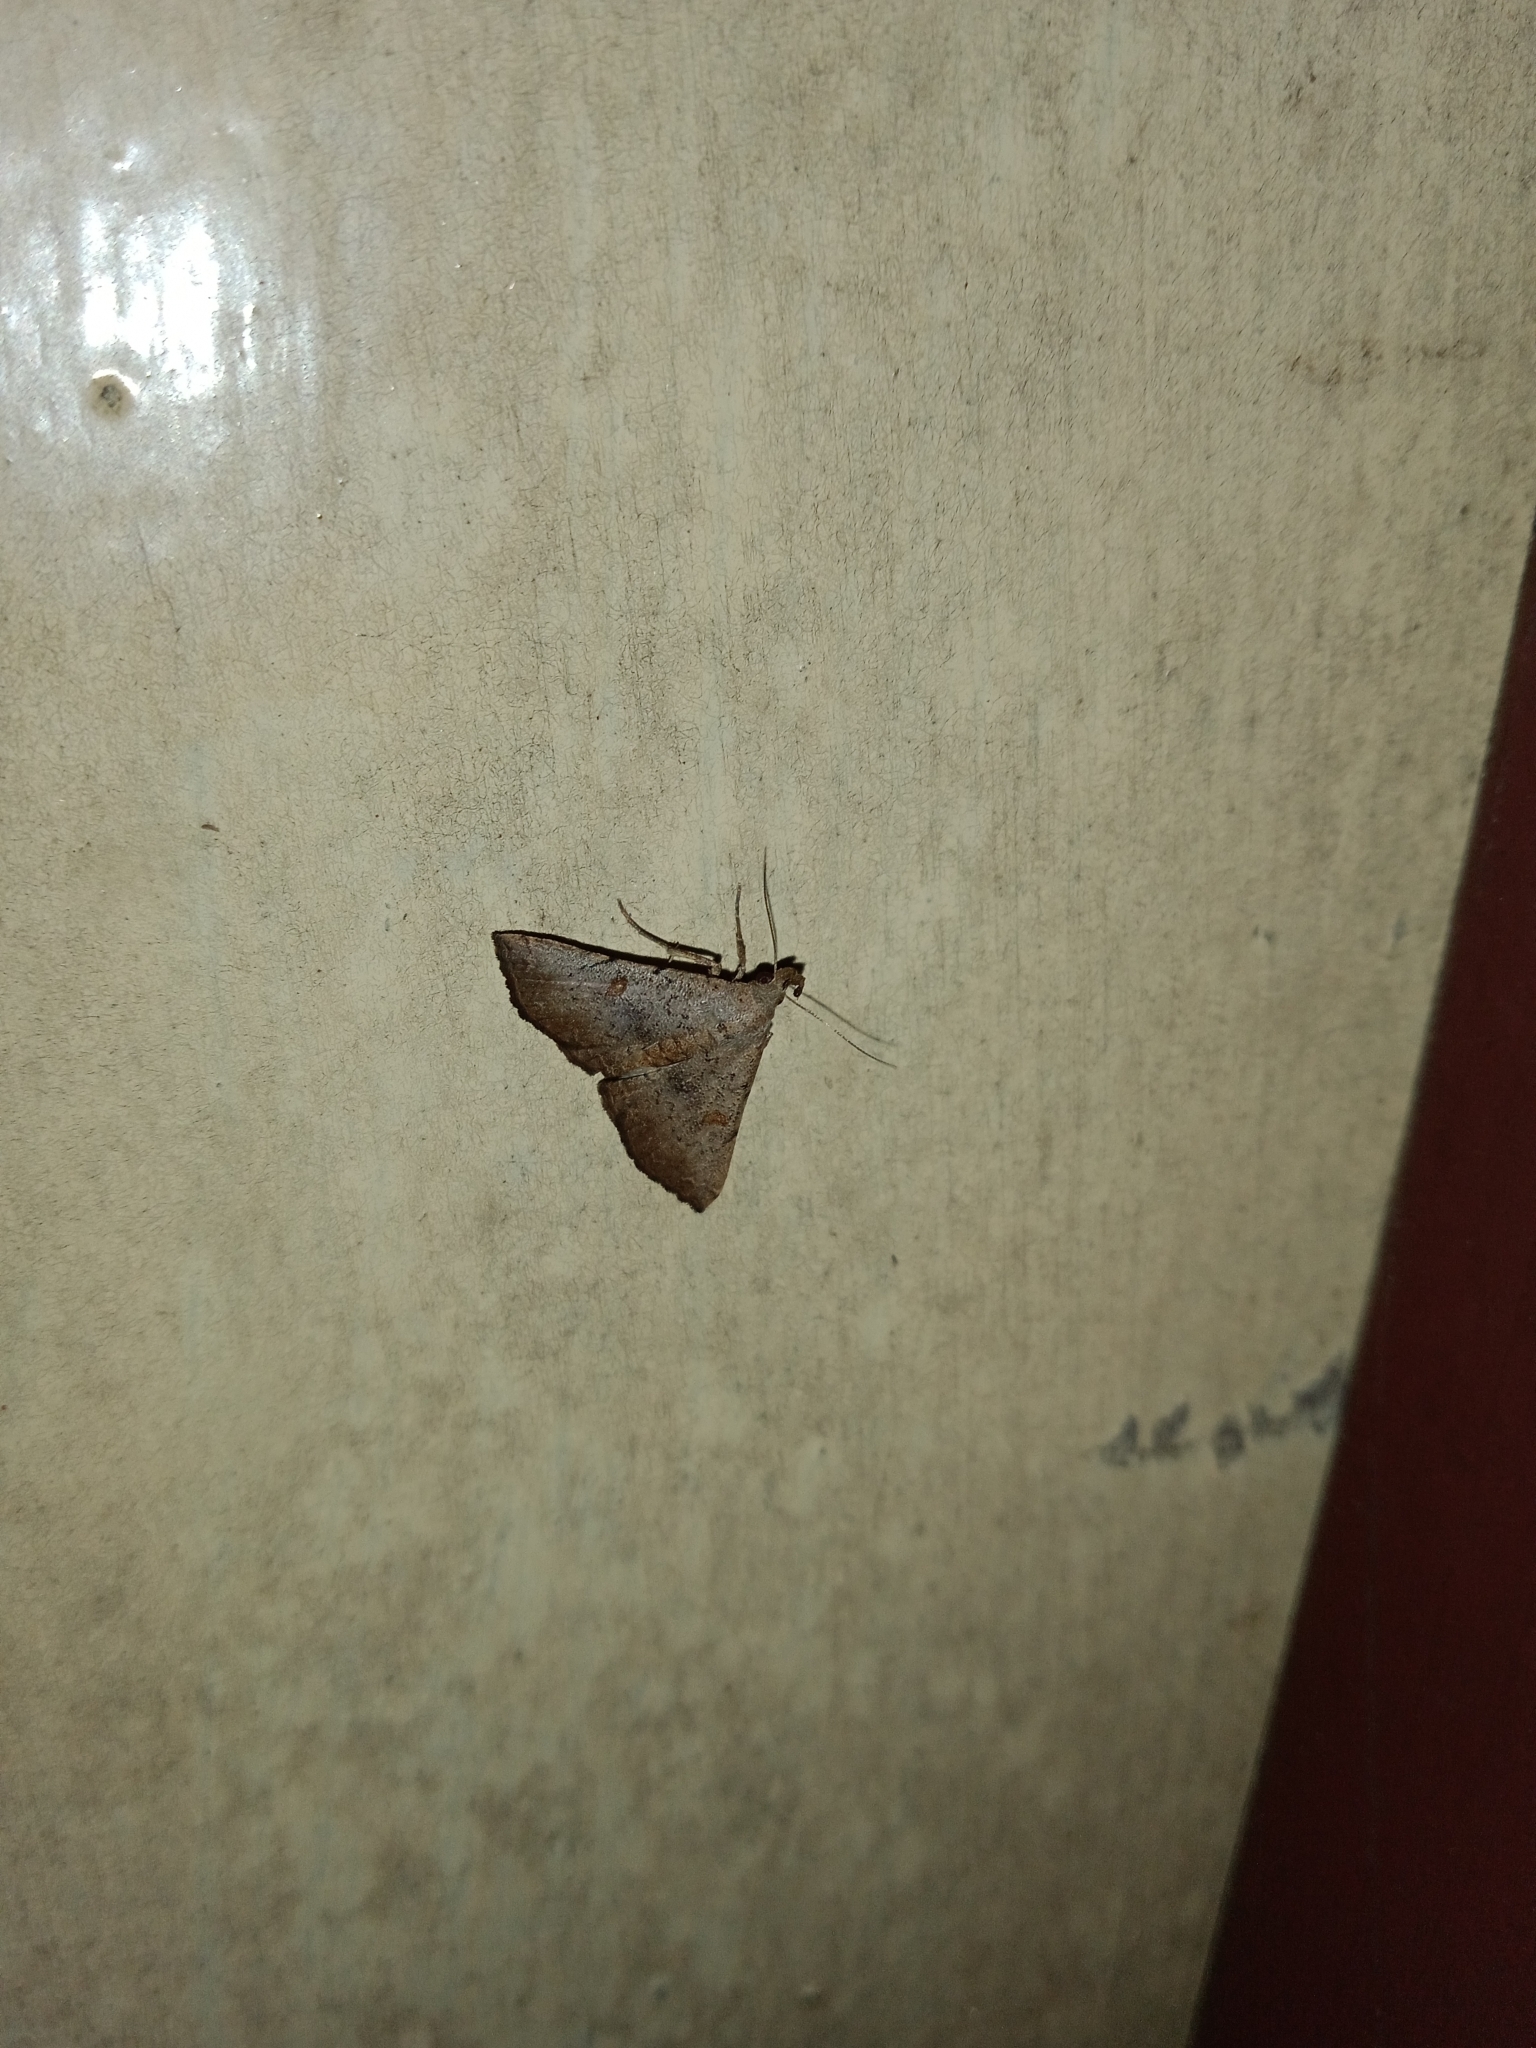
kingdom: Animalia
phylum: Arthropoda
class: Insecta
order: Lepidoptera
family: Erebidae
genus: Progonia
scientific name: Progonia oileusalis
